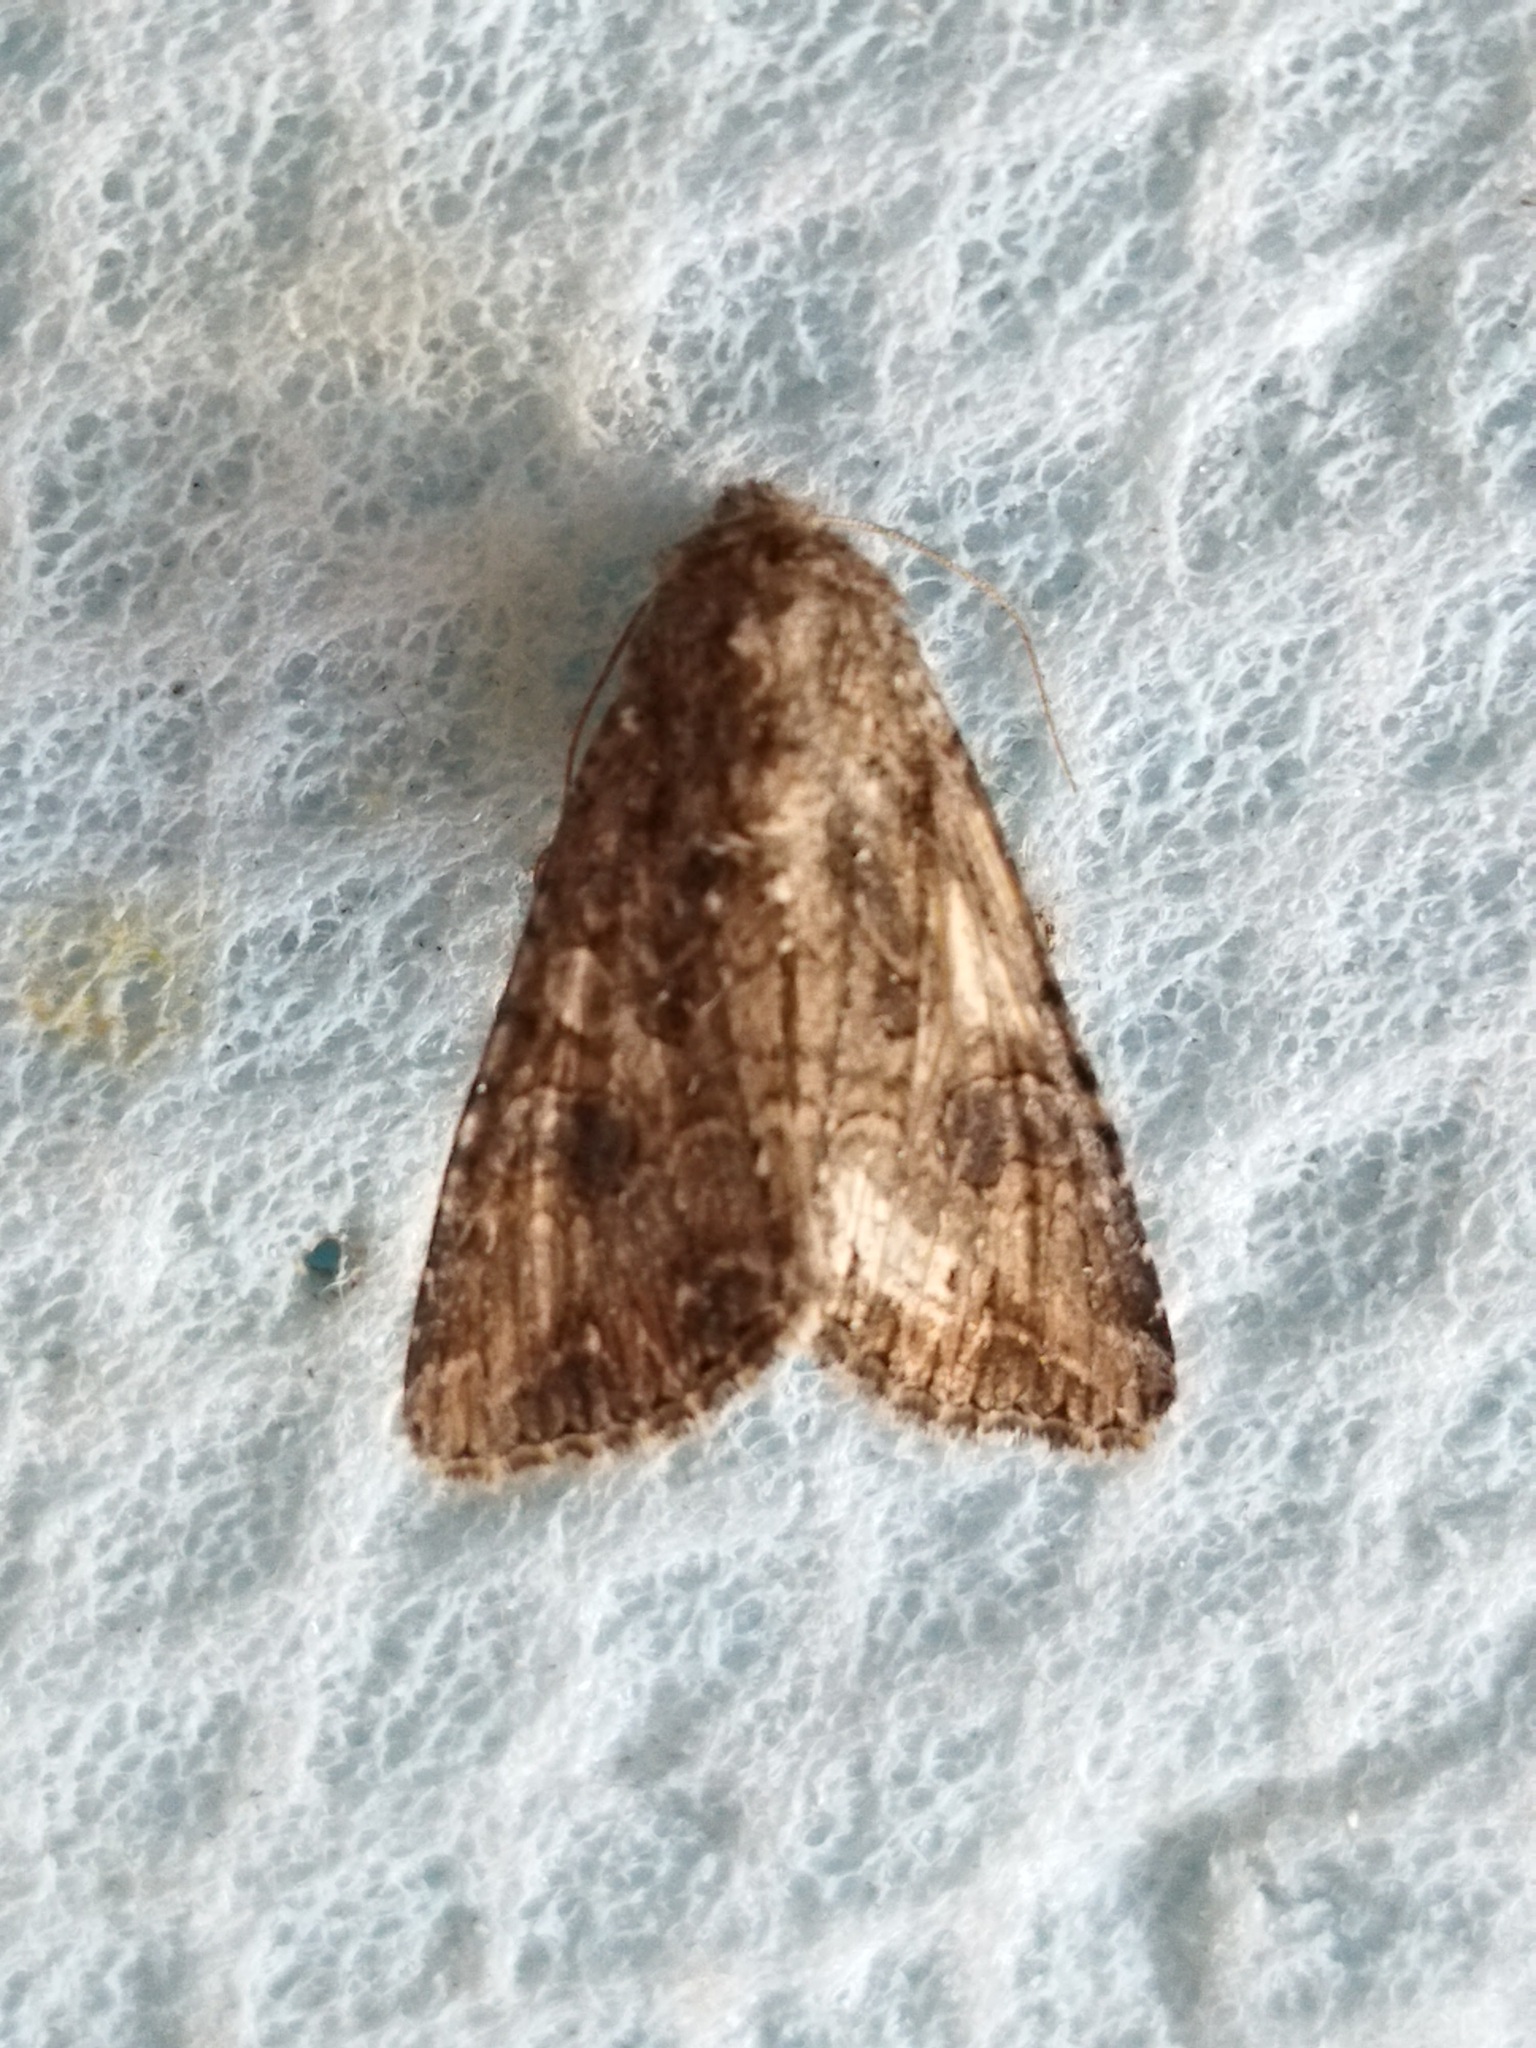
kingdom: Animalia
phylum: Arthropoda
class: Insecta
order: Lepidoptera
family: Noctuidae
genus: Anarta
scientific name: Anarta trifolii
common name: Clover cutworm moth
